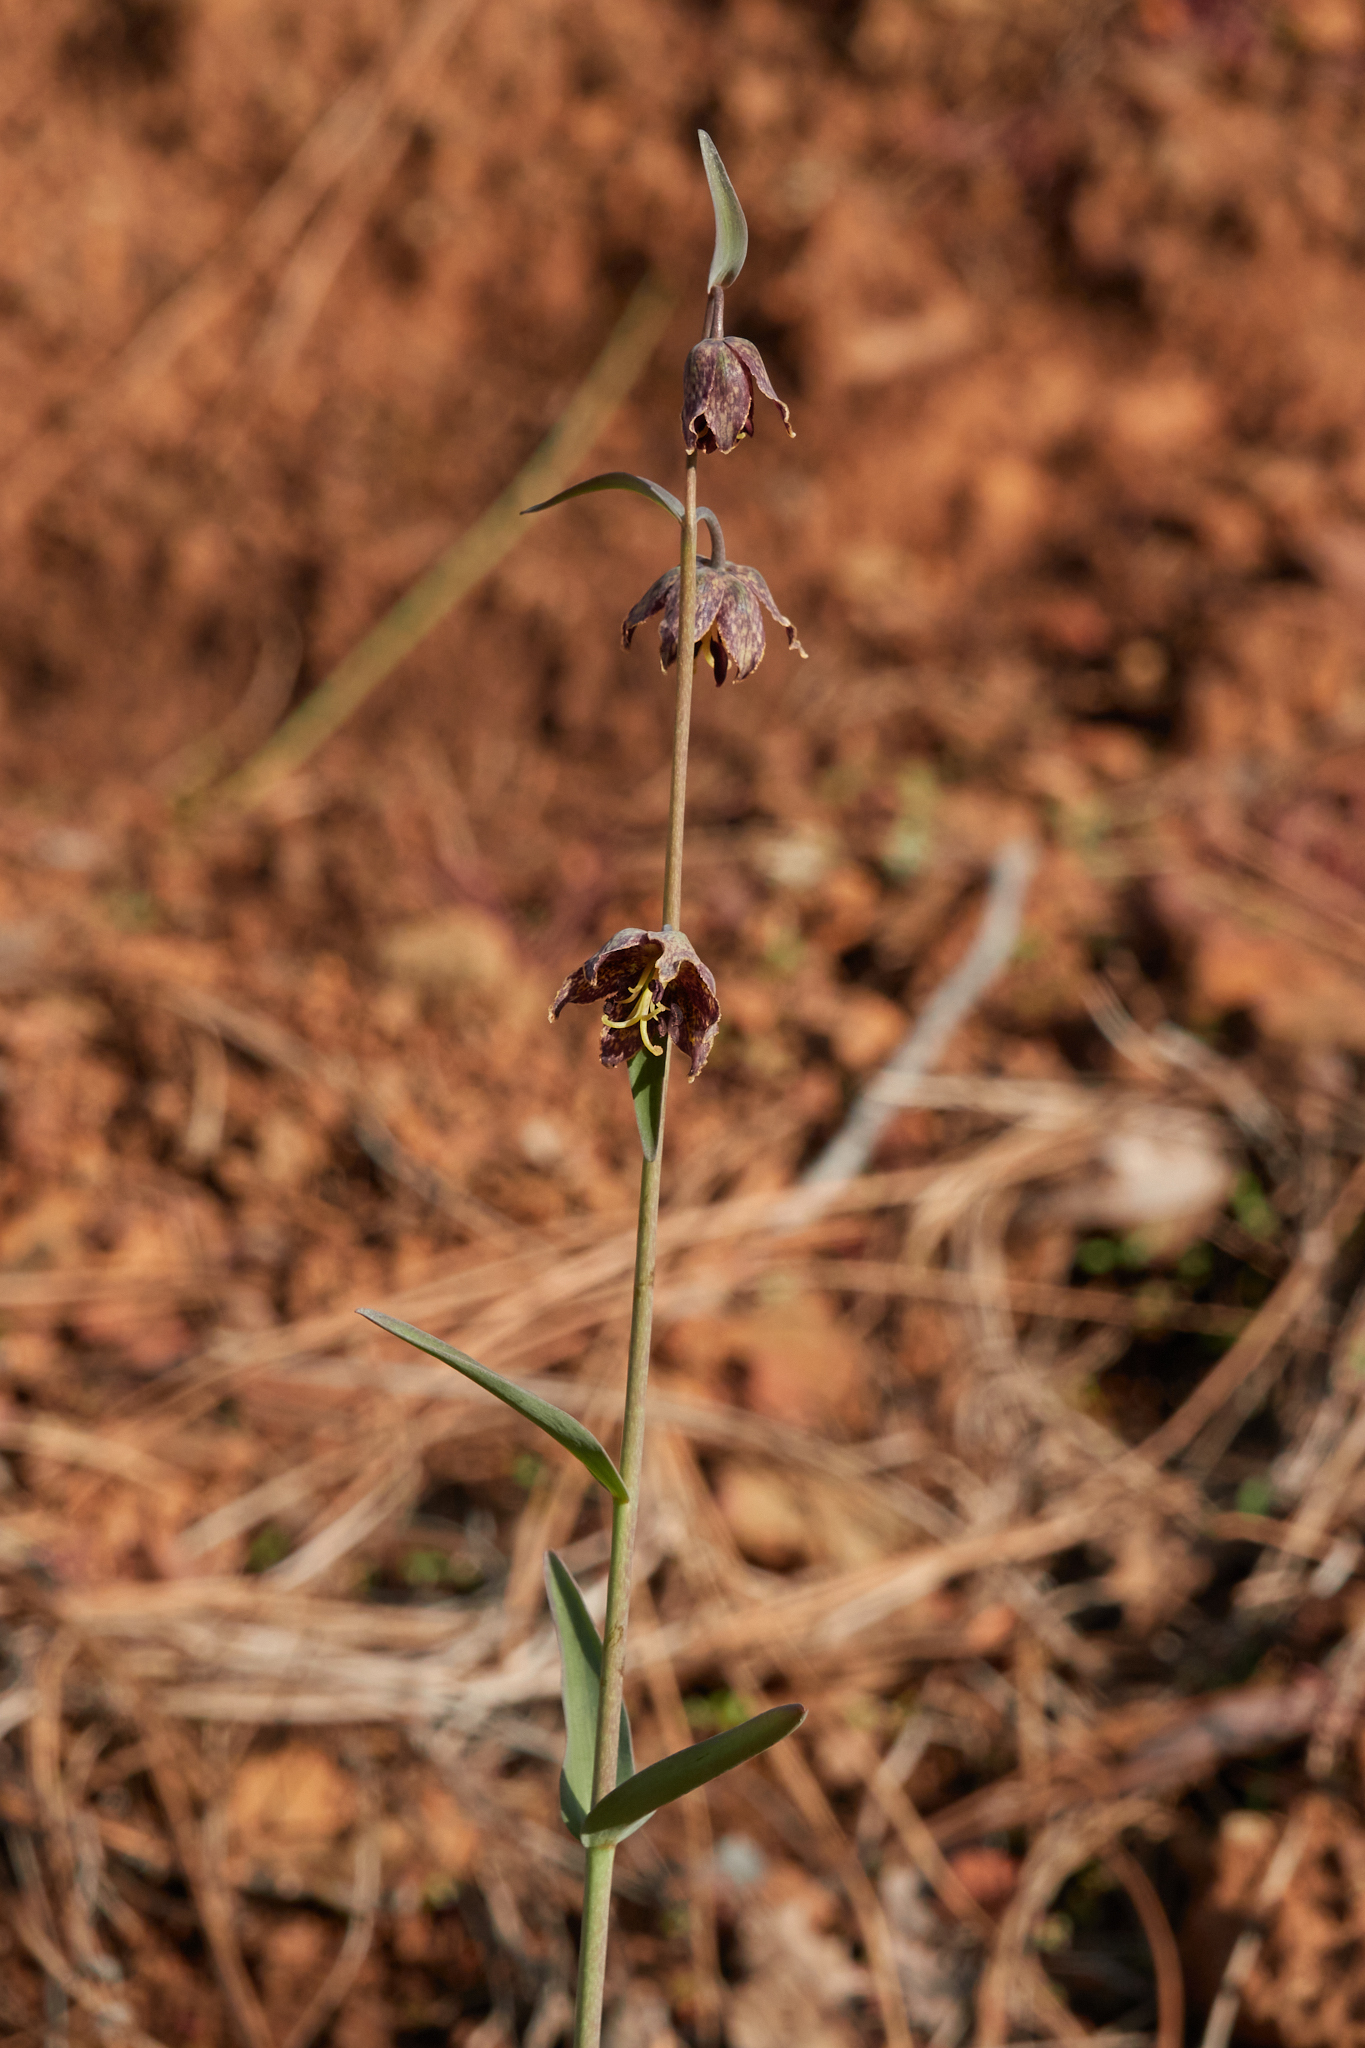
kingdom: Plantae
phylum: Tracheophyta
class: Liliopsida
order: Liliales
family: Liliaceae
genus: Fritillaria
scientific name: Fritillaria affinis
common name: Ojai fritillary
